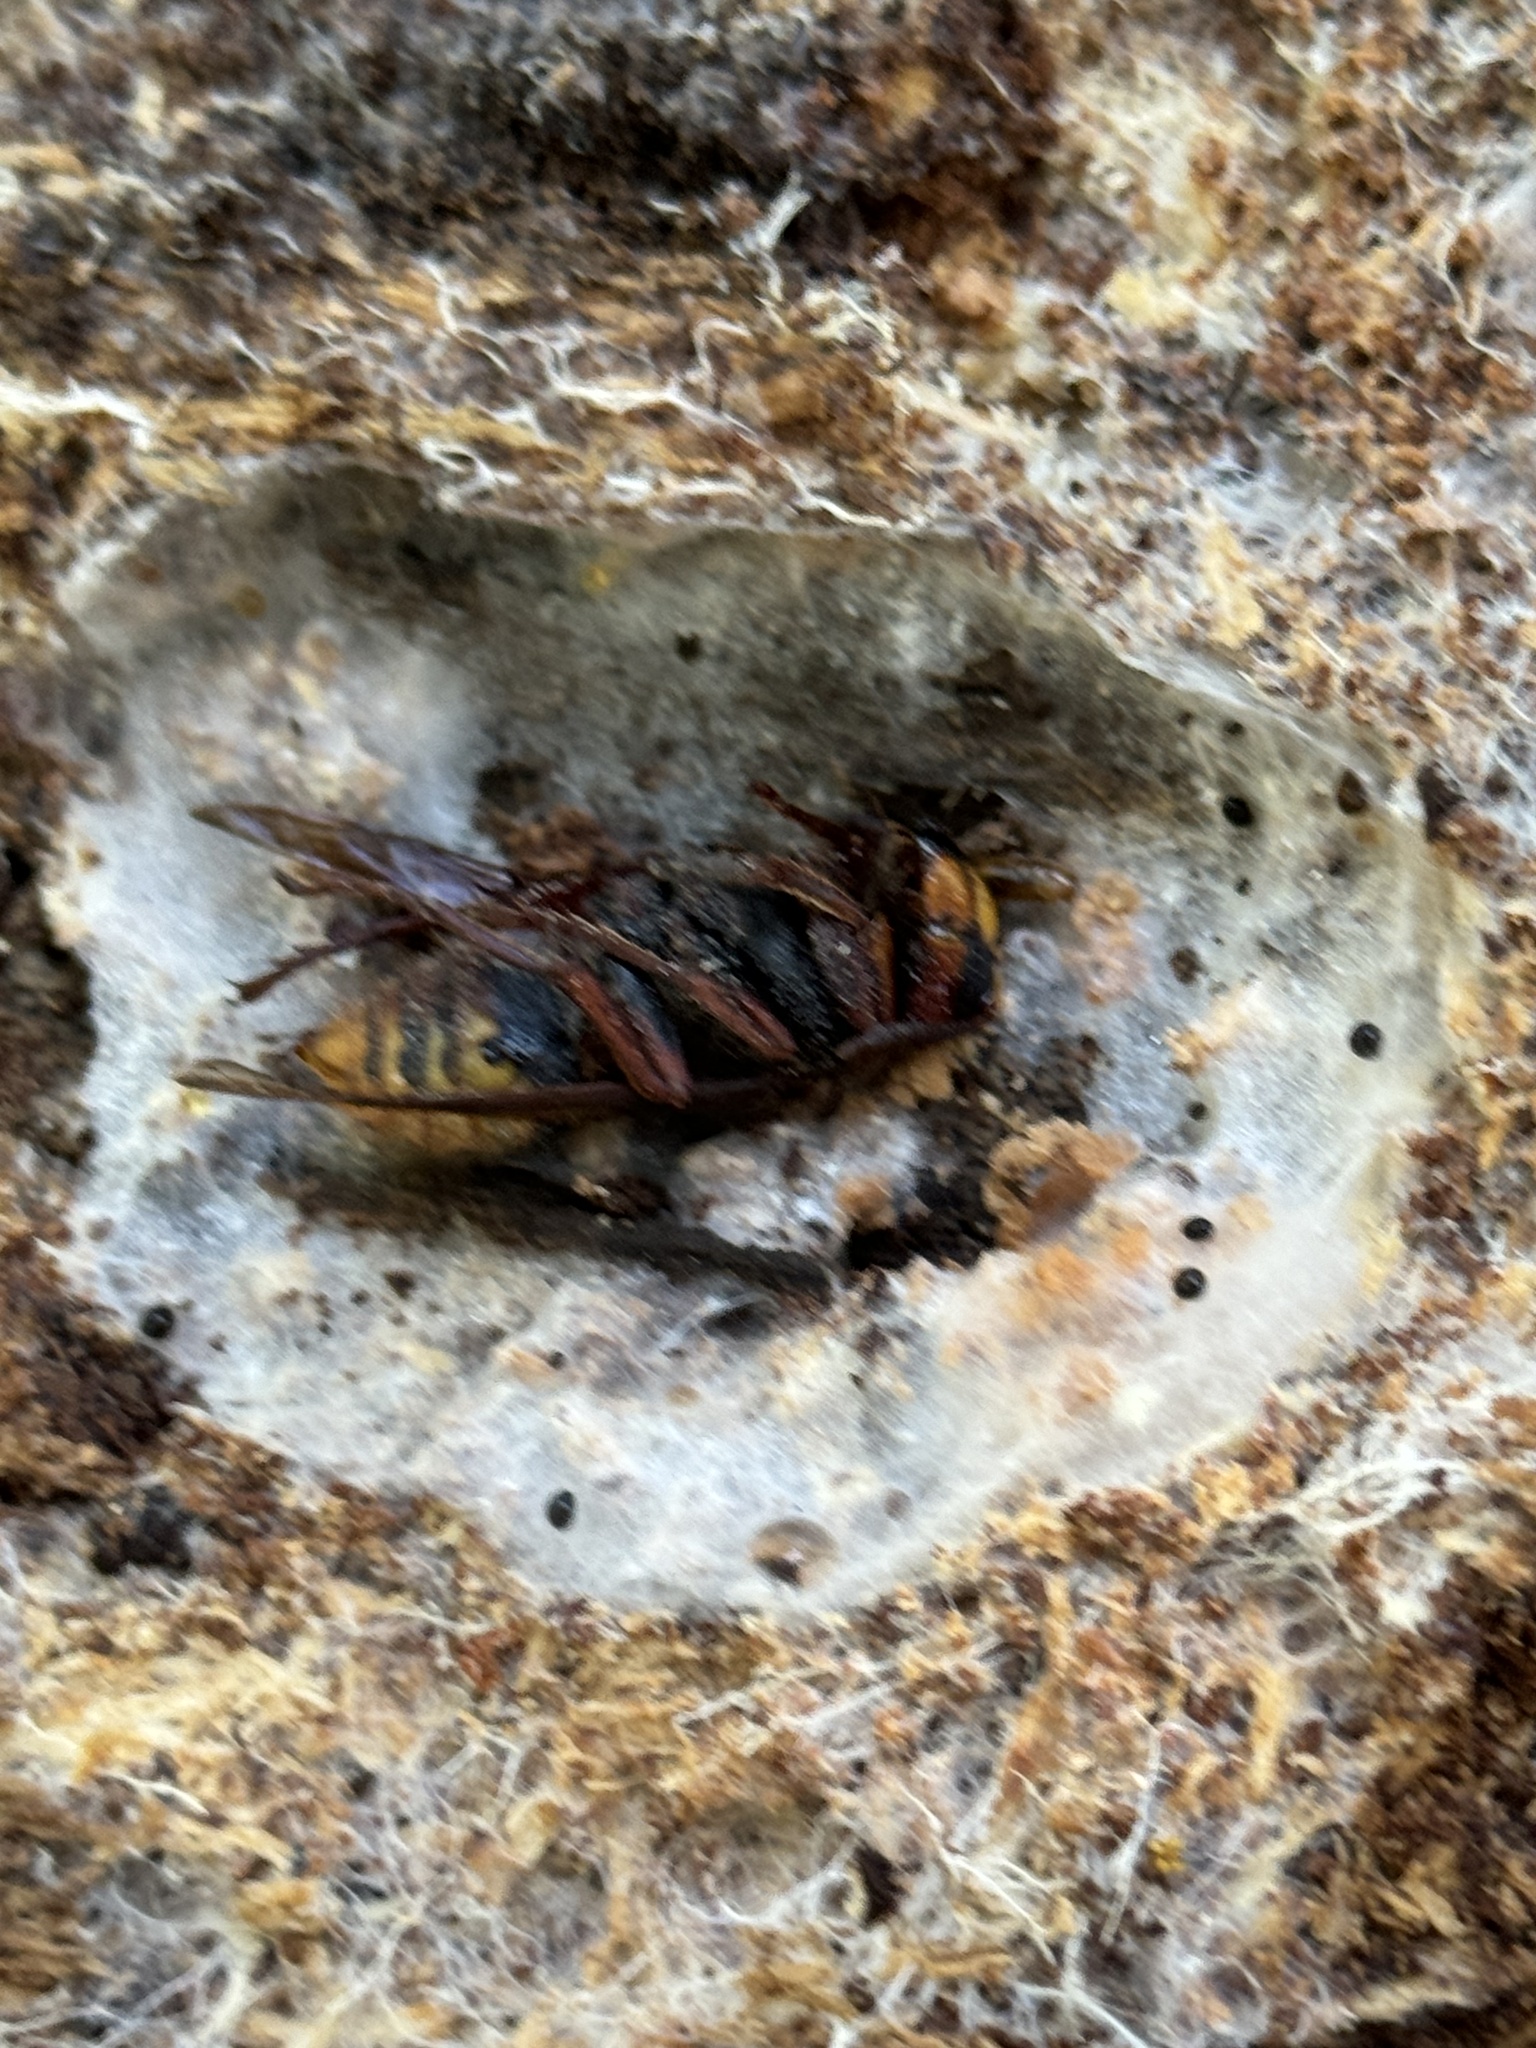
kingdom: Animalia
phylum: Arthropoda
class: Insecta
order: Hymenoptera
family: Vespidae
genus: Vespa
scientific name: Vespa crabro
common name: Hornet
